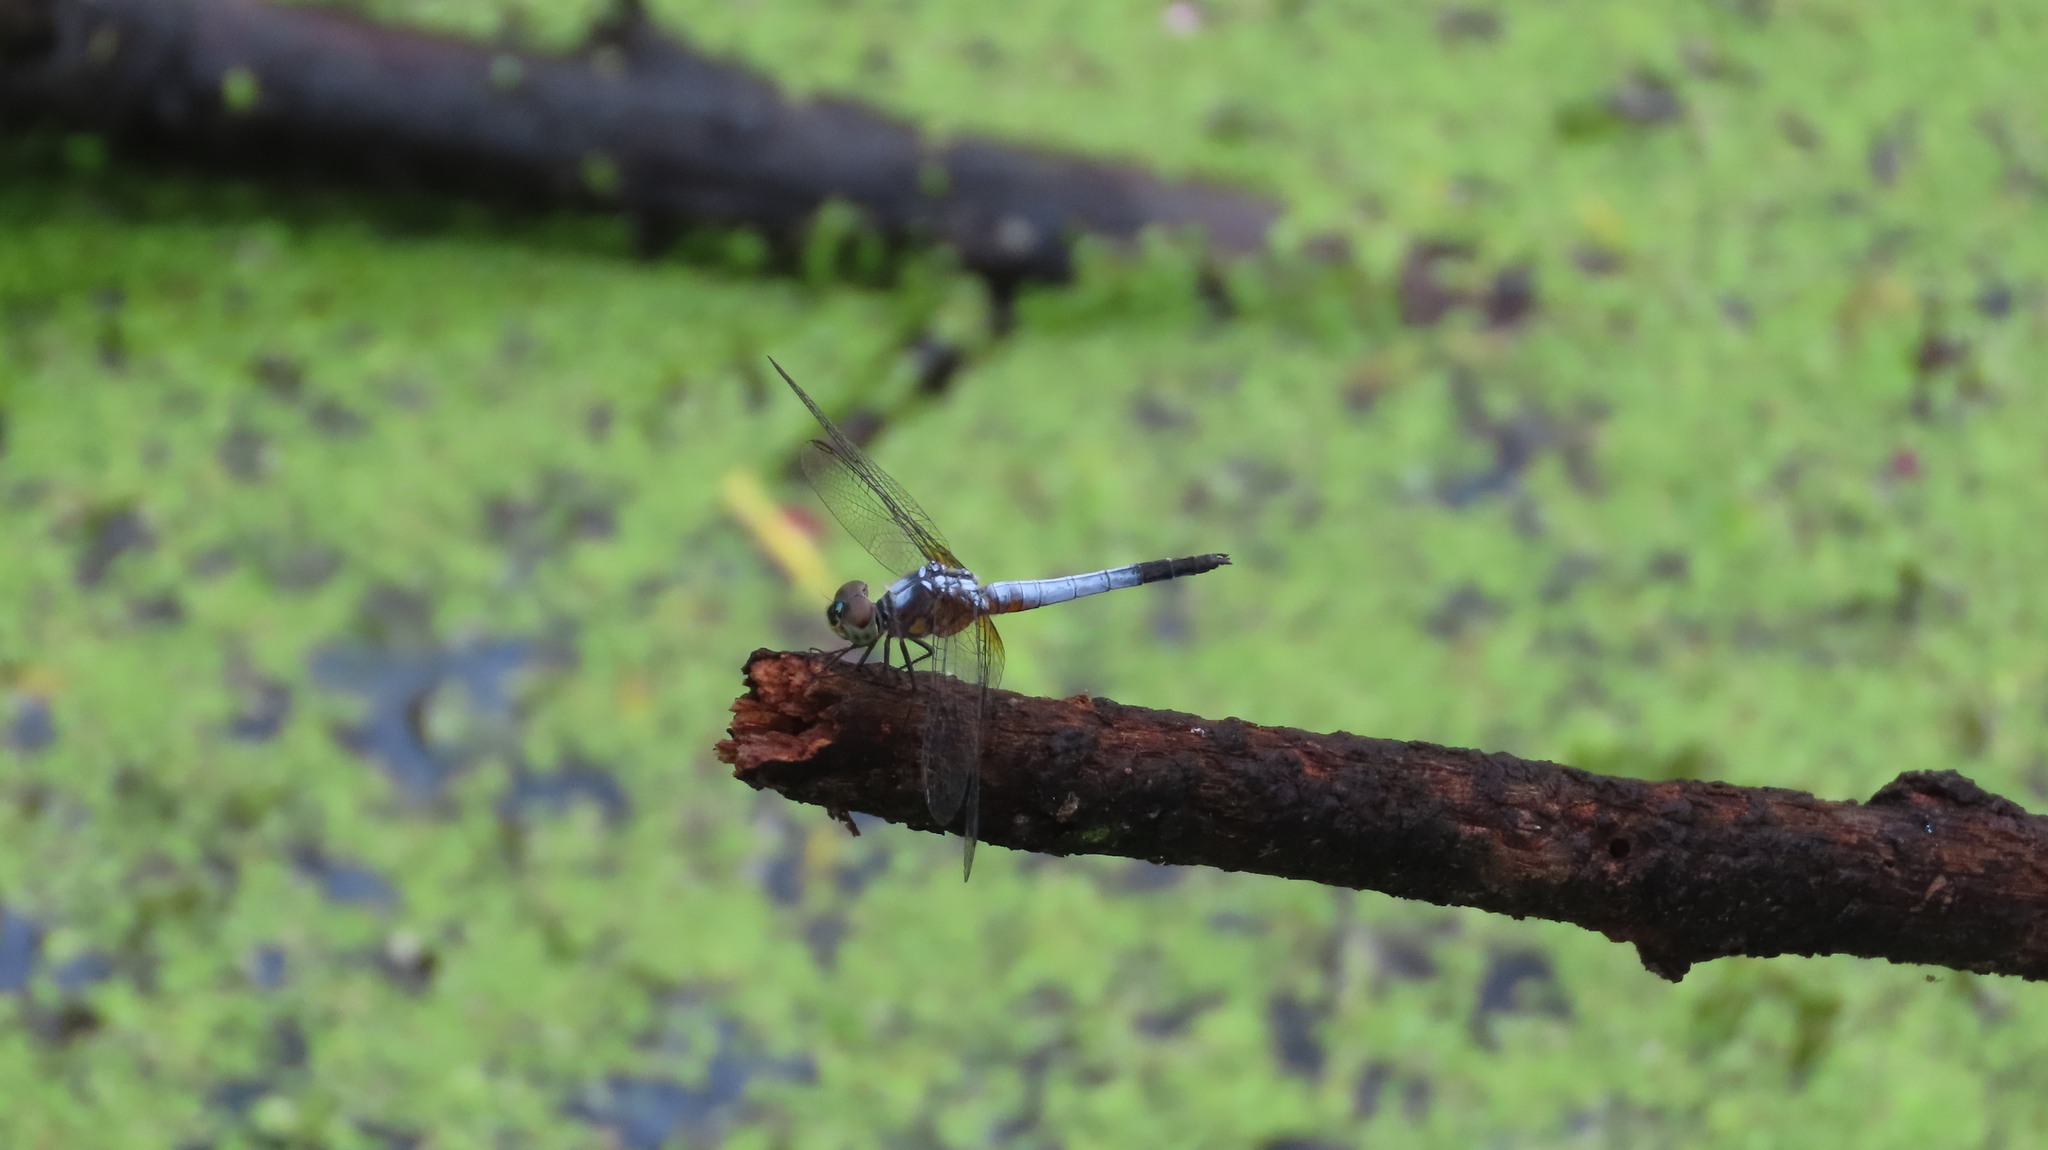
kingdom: Animalia
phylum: Arthropoda
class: Insecta
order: Odonata
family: Libellulidae
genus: Brachydiplax
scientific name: Brachydiplax chalybea
